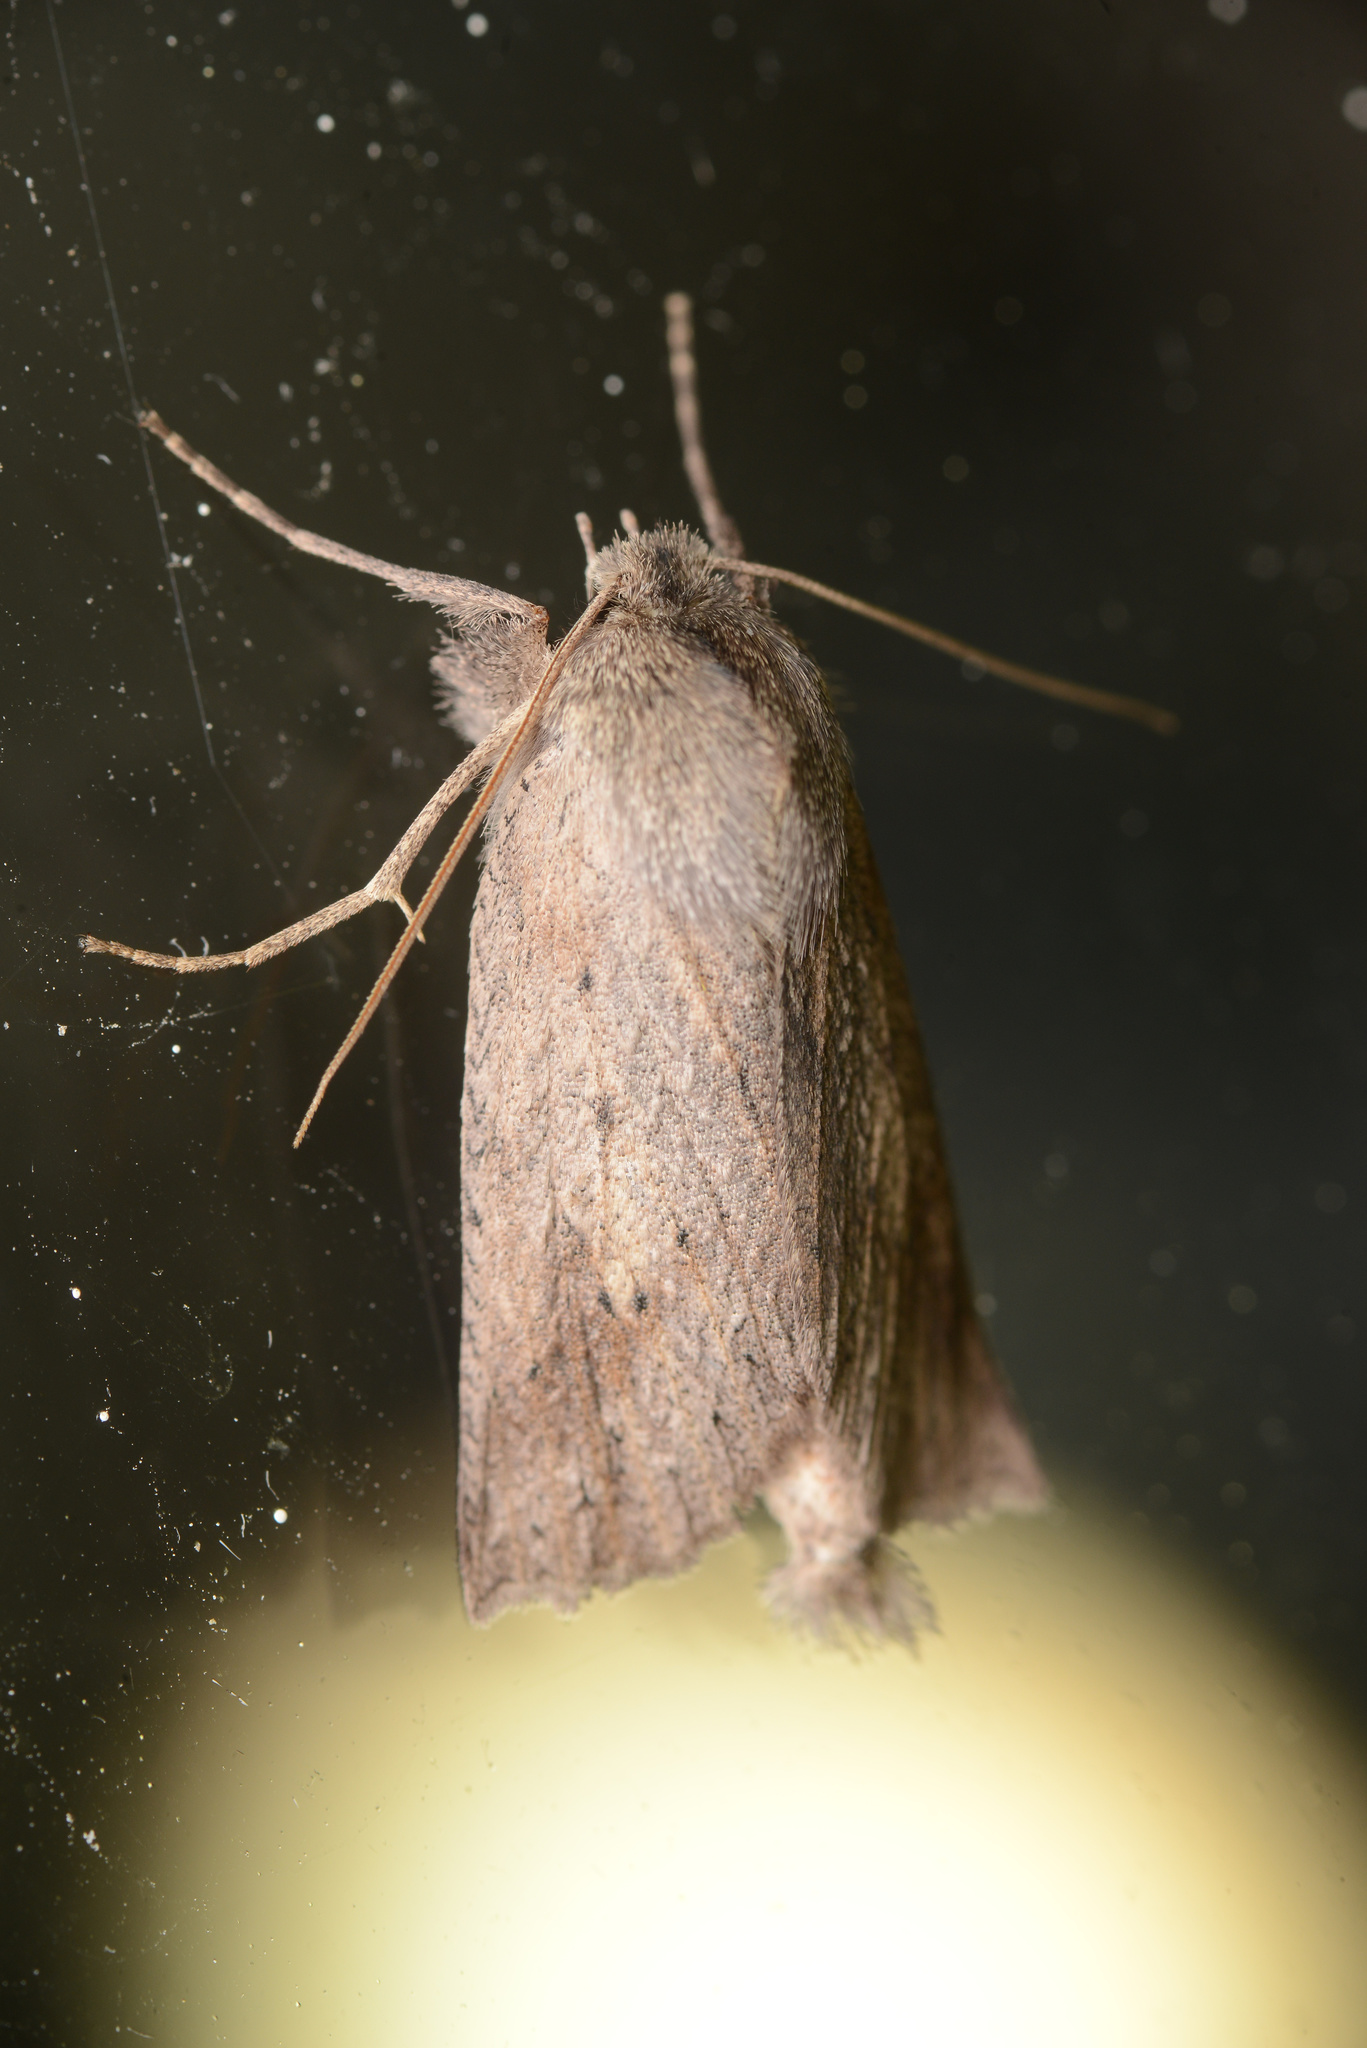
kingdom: Animalia
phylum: Arthropoda
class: Insecta
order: Lepidoptera
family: Geometridae
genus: Declana
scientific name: Declana leptomera
